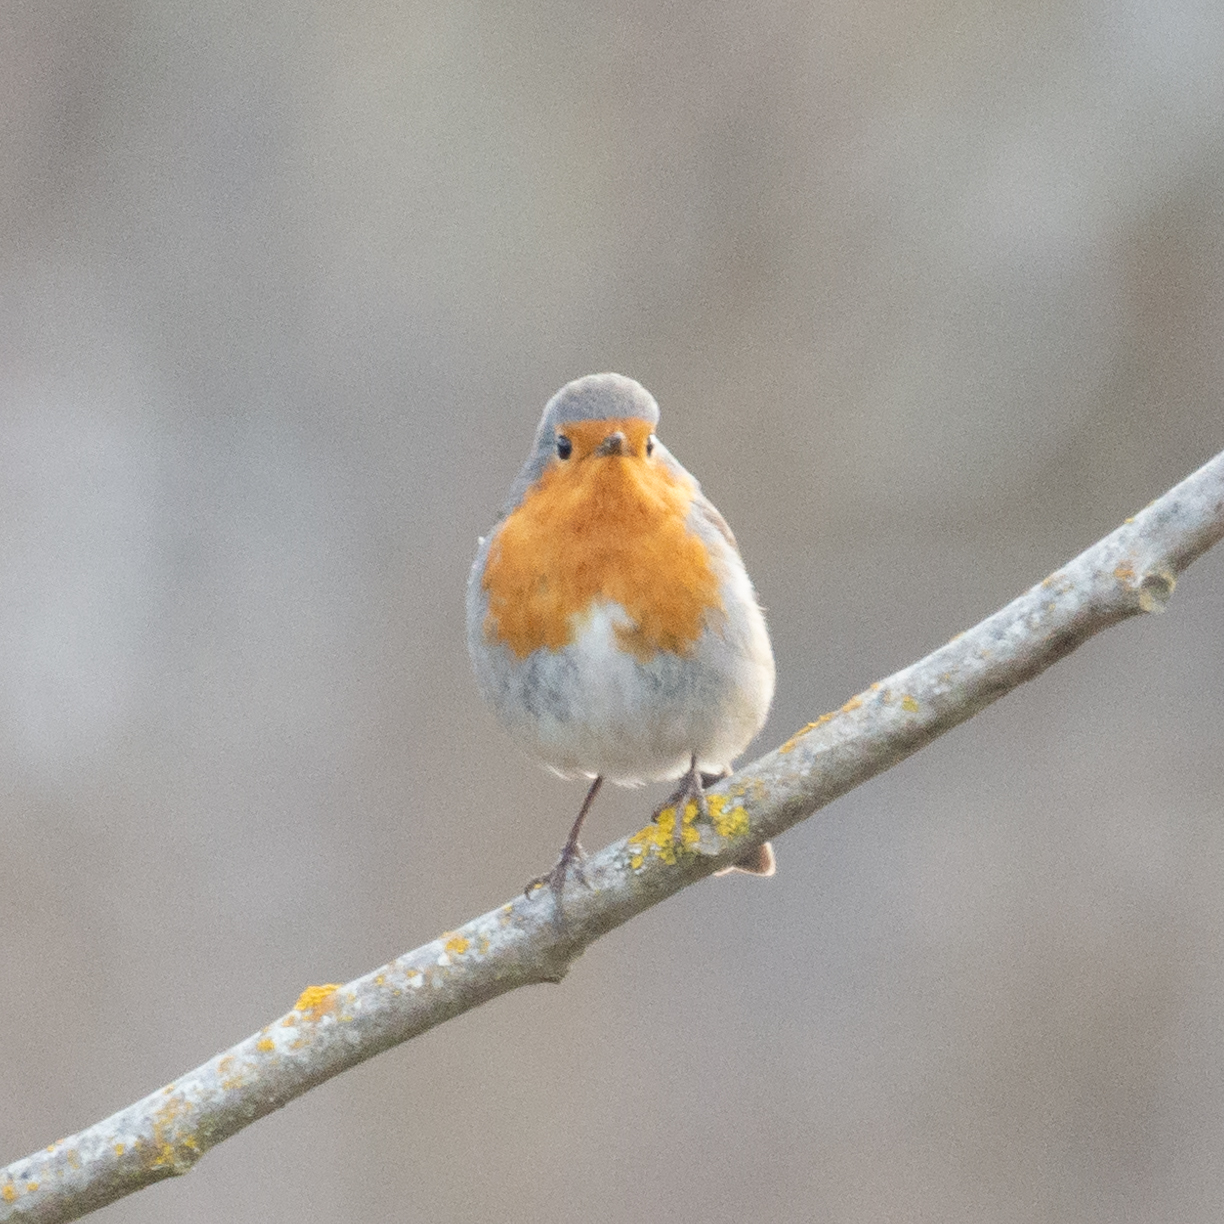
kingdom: Animalia
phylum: Chordata
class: Aves
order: Passeriformes
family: Muscicapidae
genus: Erithacus
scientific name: Erithacus rubecula
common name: European robin
